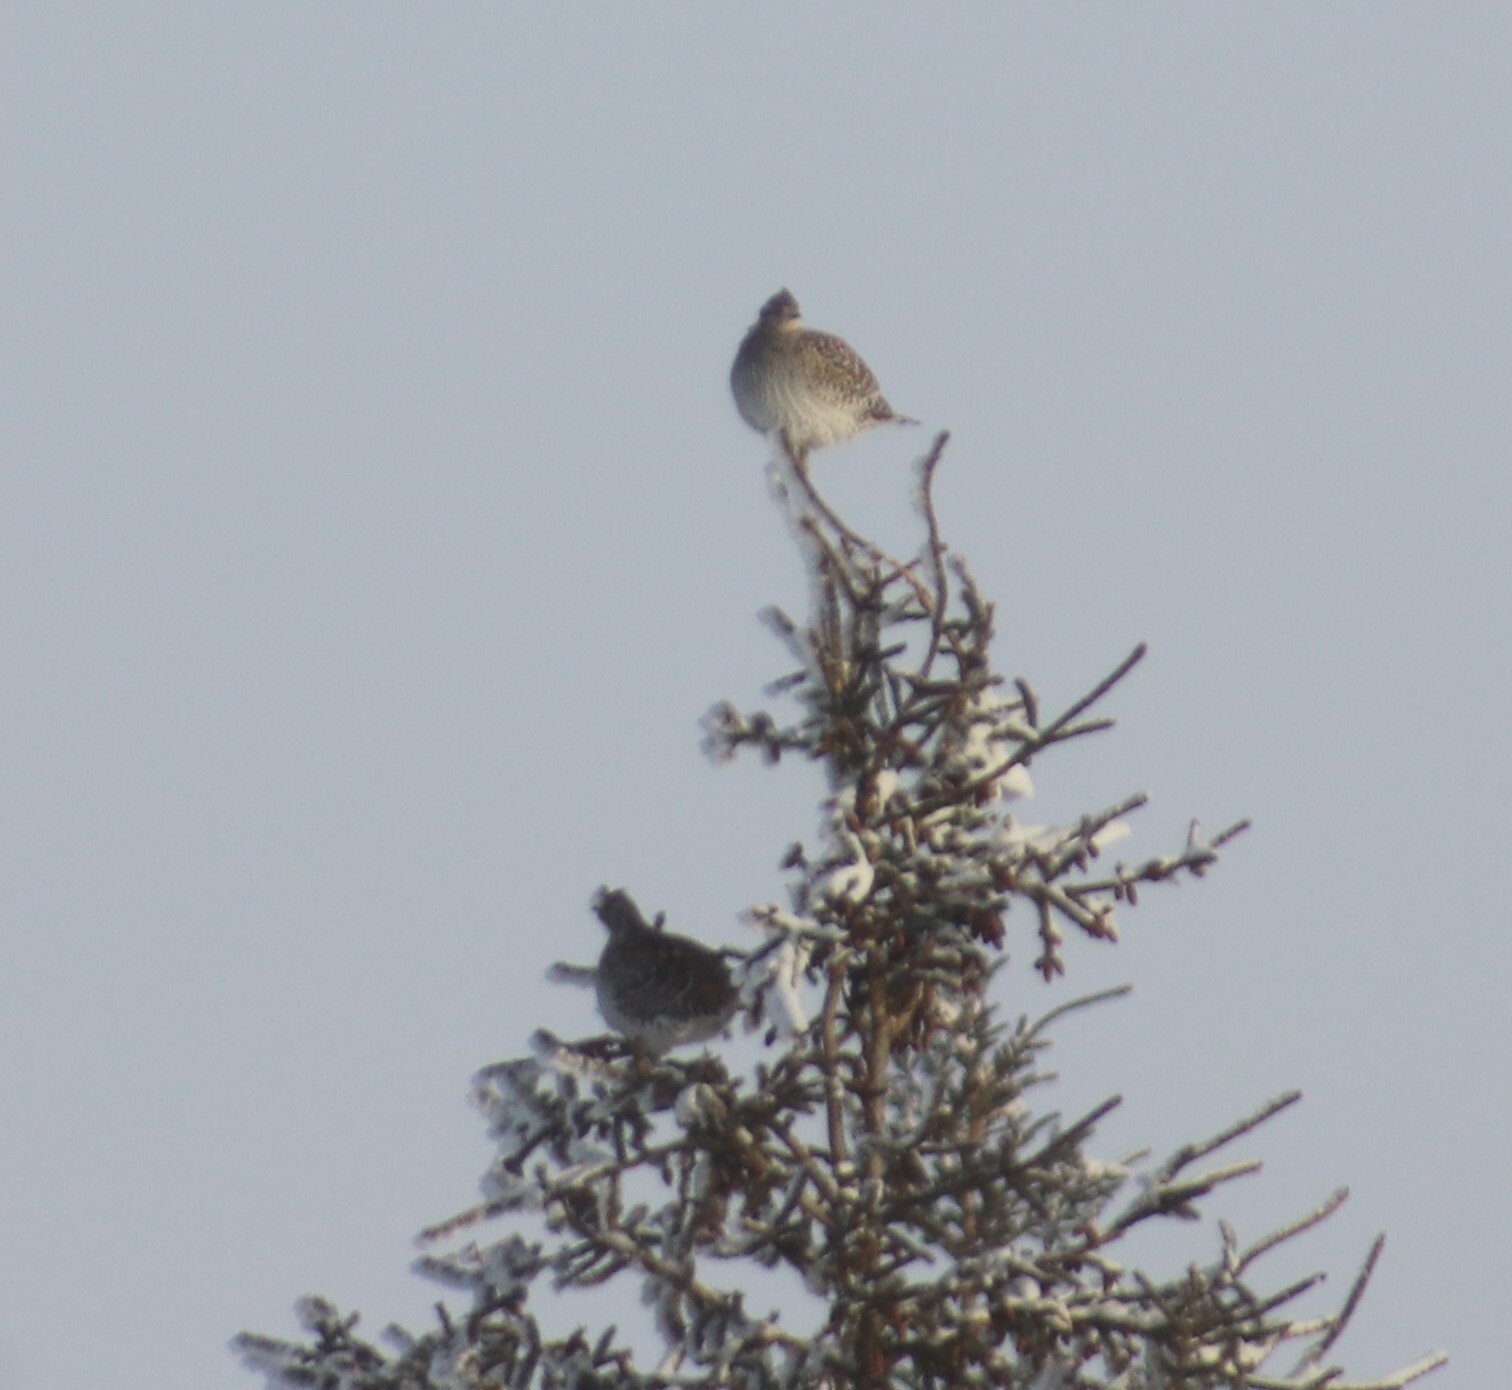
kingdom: Animalia
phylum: Chordata
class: Aves
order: Galliformes
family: Phasianidae
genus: Tympanuchus
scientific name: Tympanuchus phasianellus
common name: Sharp-tailed grouse
